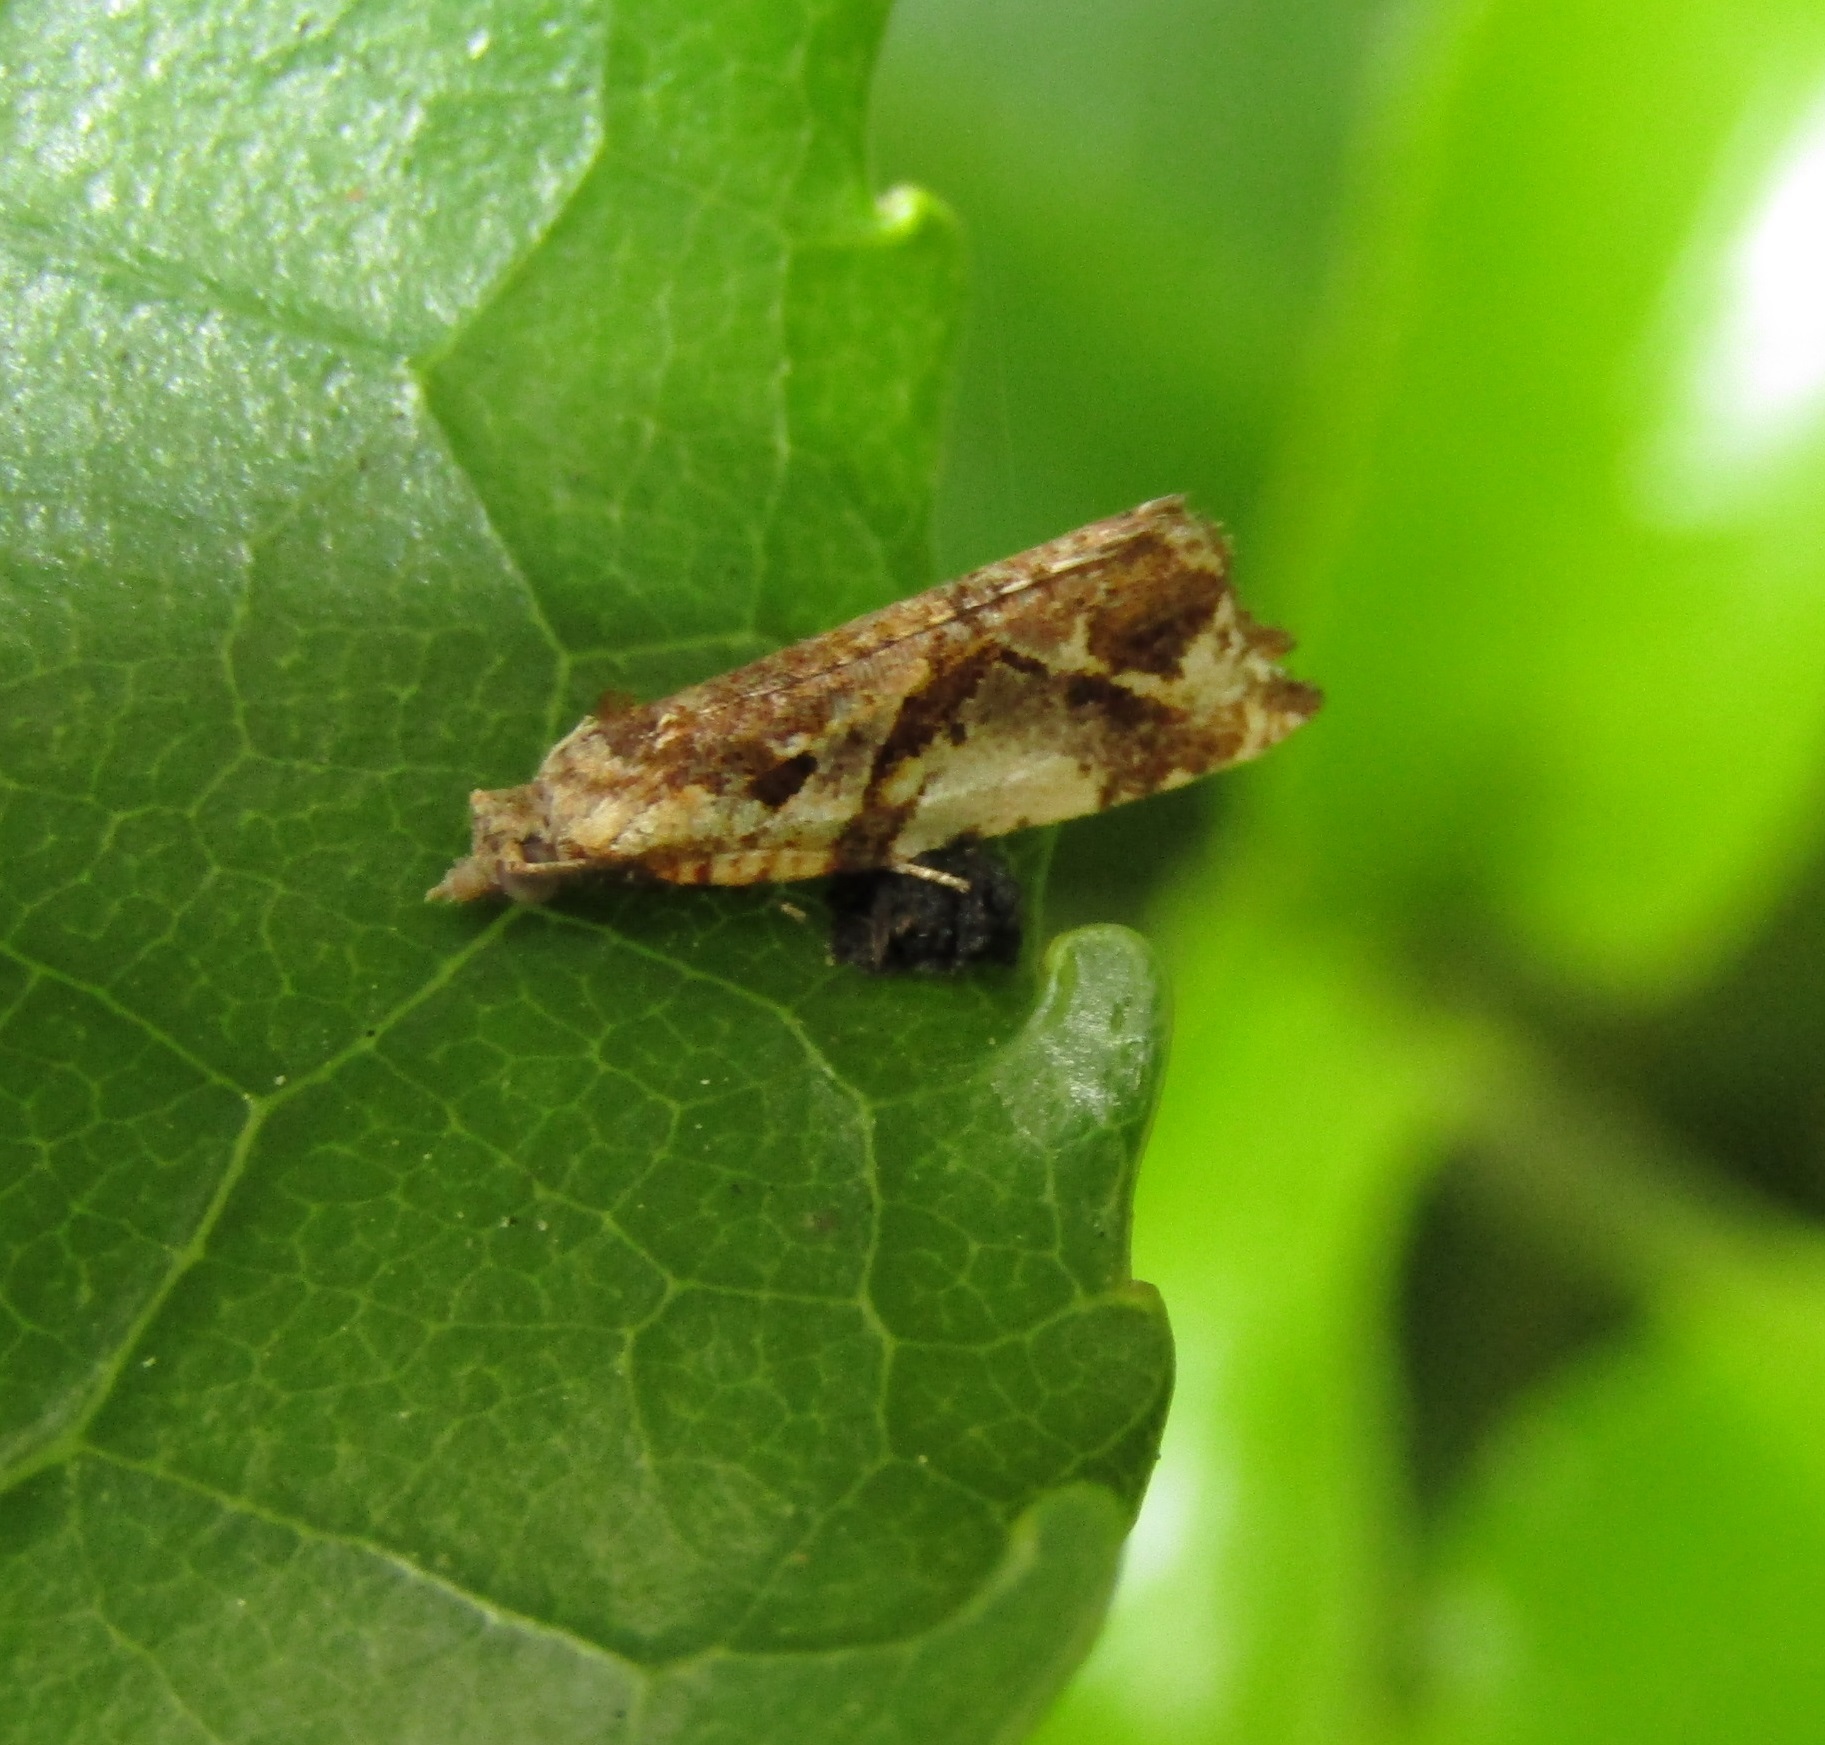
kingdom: Animalia
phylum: Arthropoda
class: Insecta
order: Lepidoptera
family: Tortricidae
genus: Pyrgotis
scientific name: Pyrgotis plagiatana
